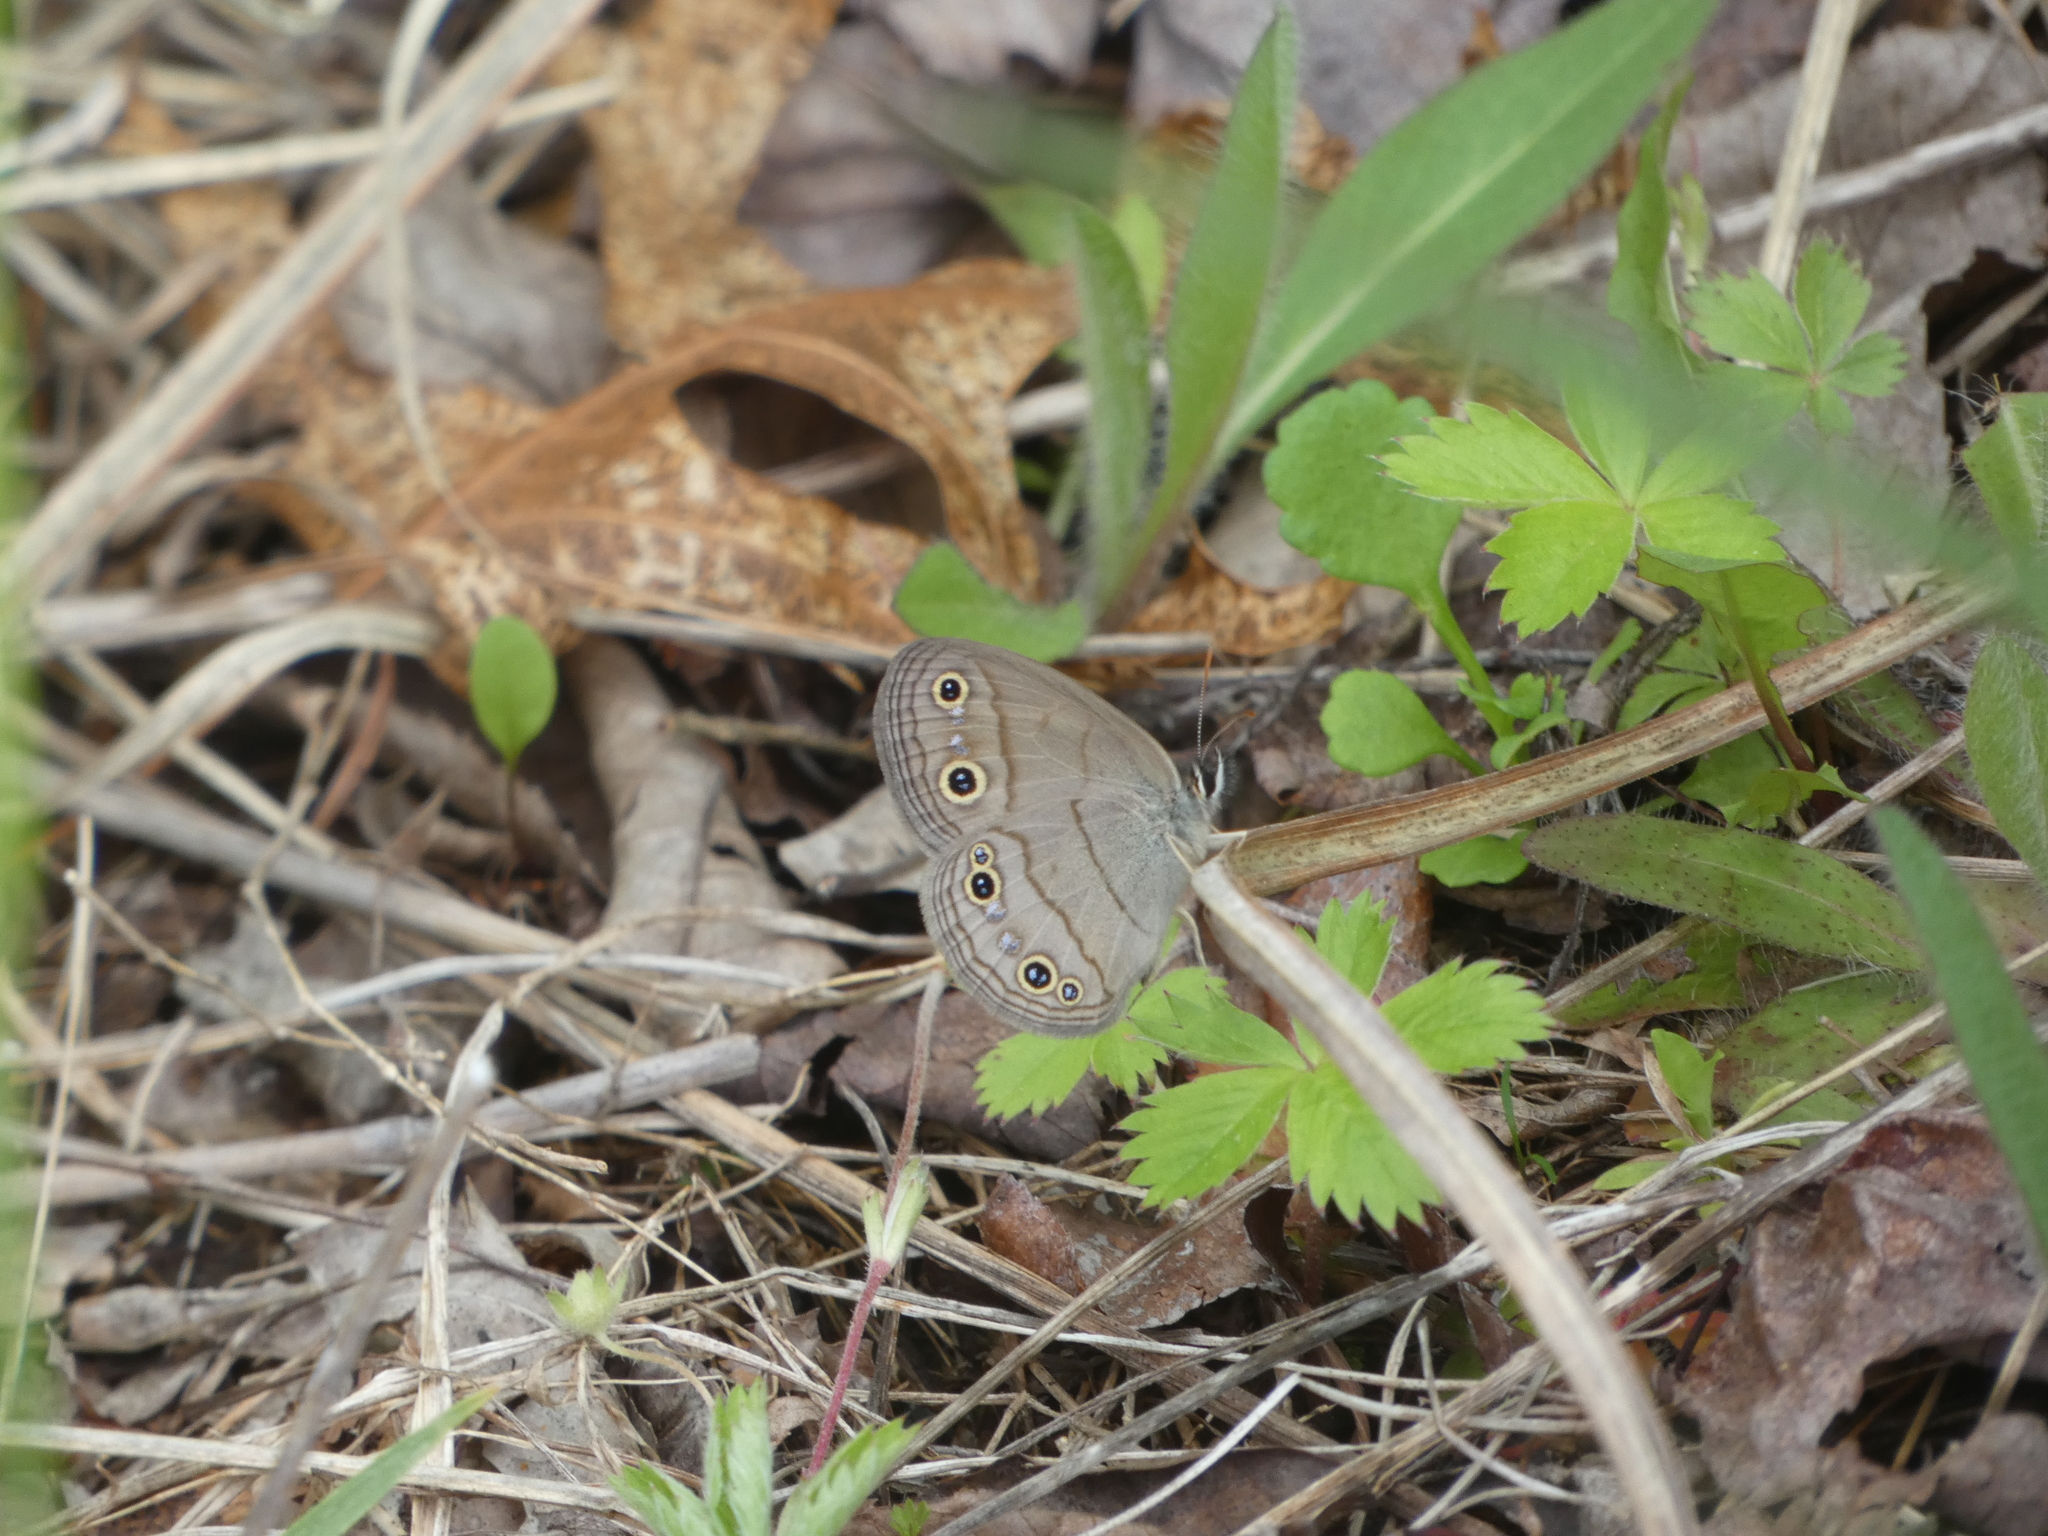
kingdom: Animalia
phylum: Arthropoda
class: Insecta
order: Lepidoptera
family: Nymphalidae
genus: Euptychia
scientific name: Euptychia cymela
